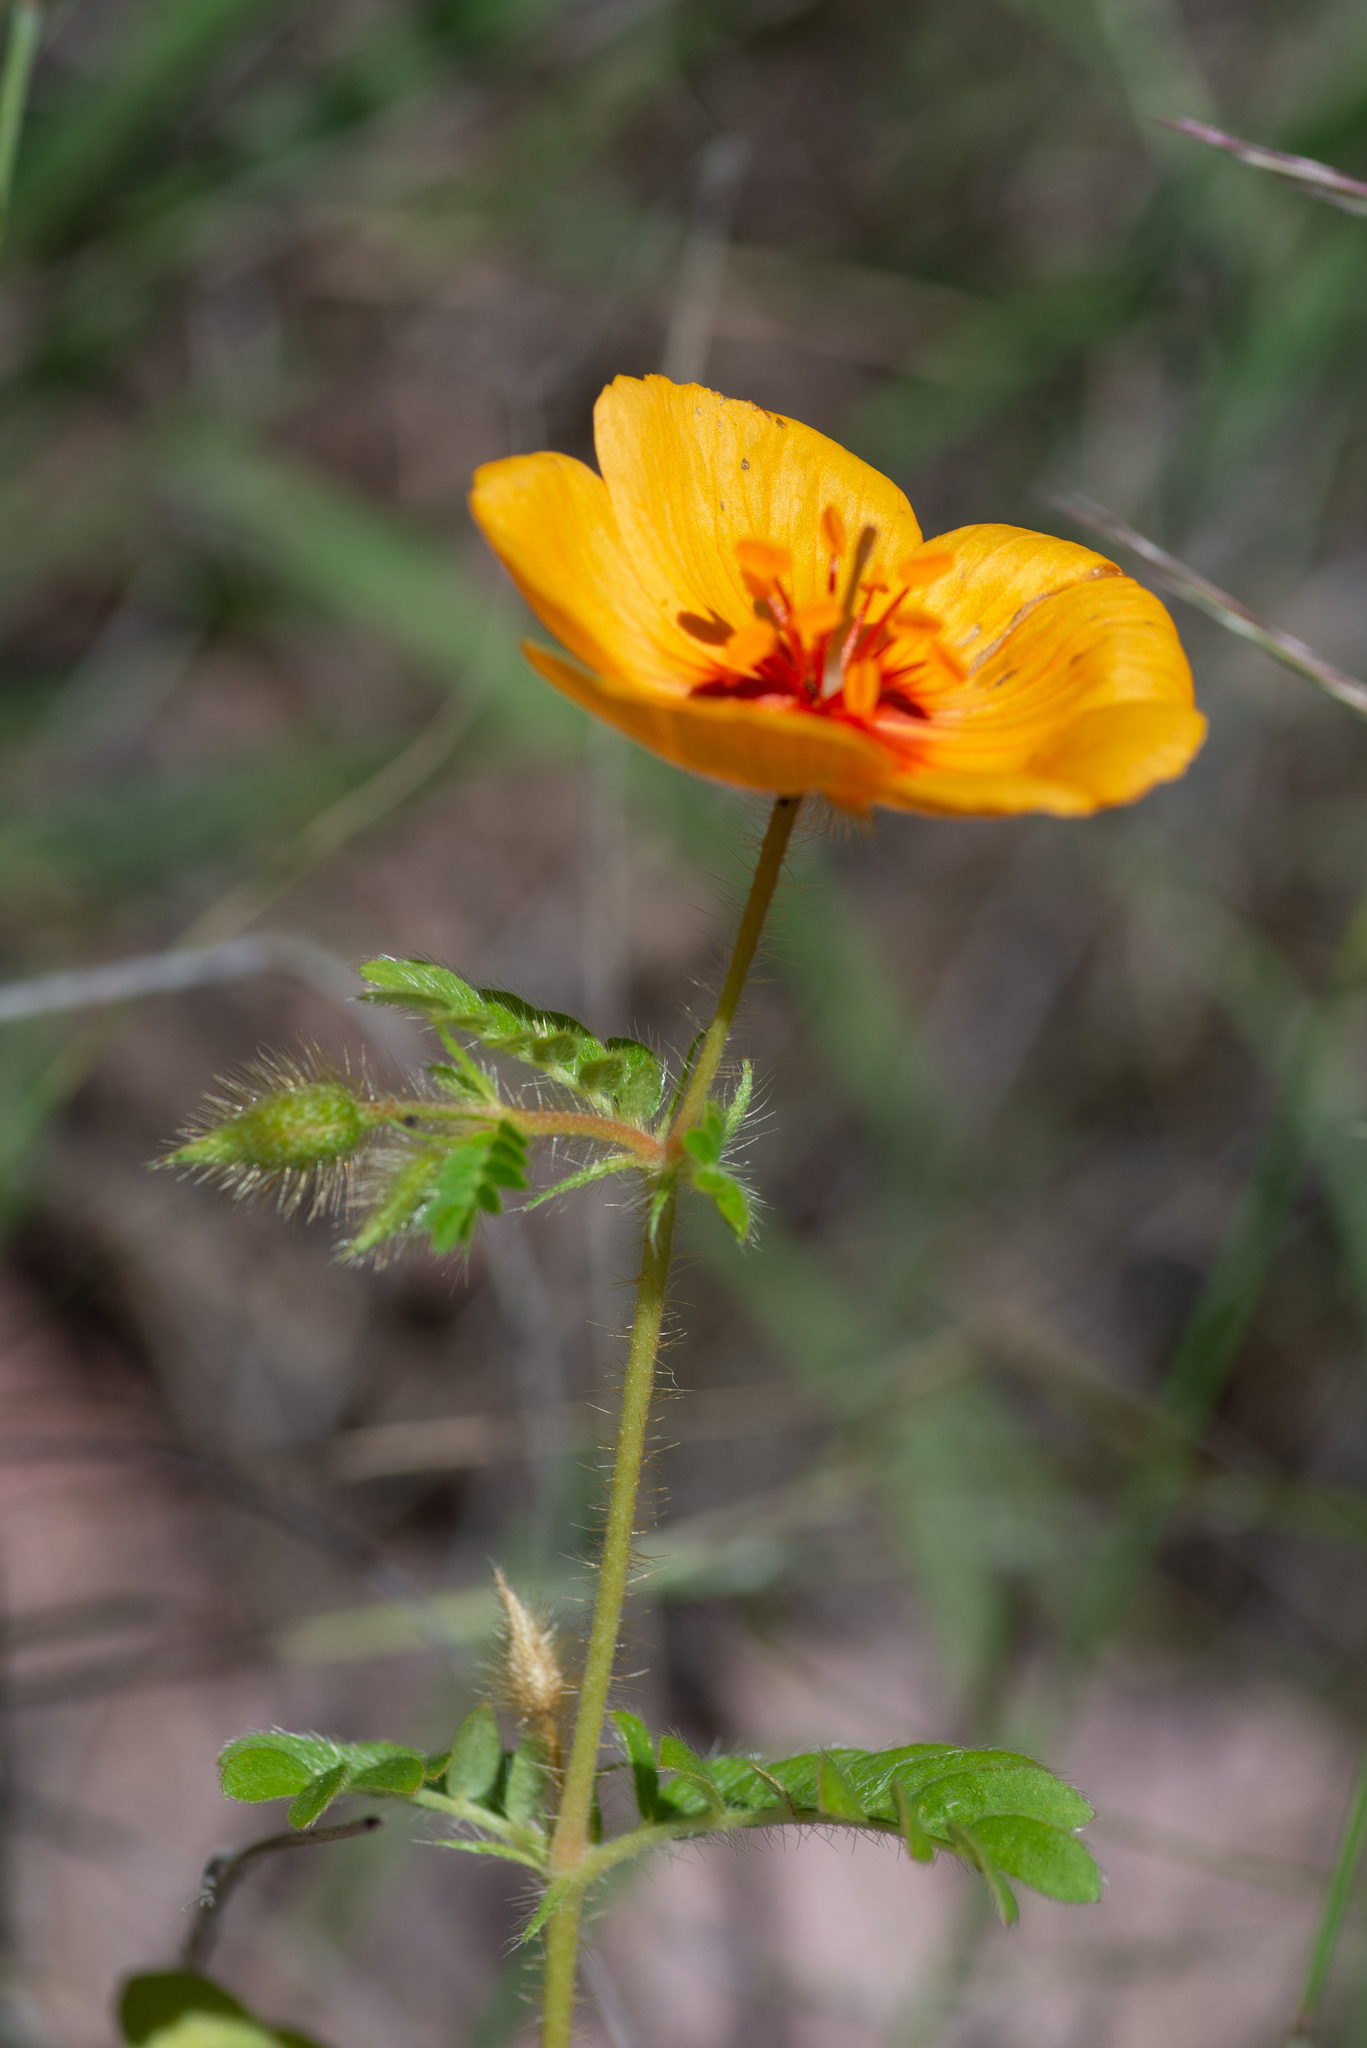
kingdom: Plantae
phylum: Tracheophyta
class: Magnoliopsida
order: Zygophyllales
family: Zygophyllaceae
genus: Kallstroemia
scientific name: Kallstroemia grandiflora
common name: Arizona-poppy
